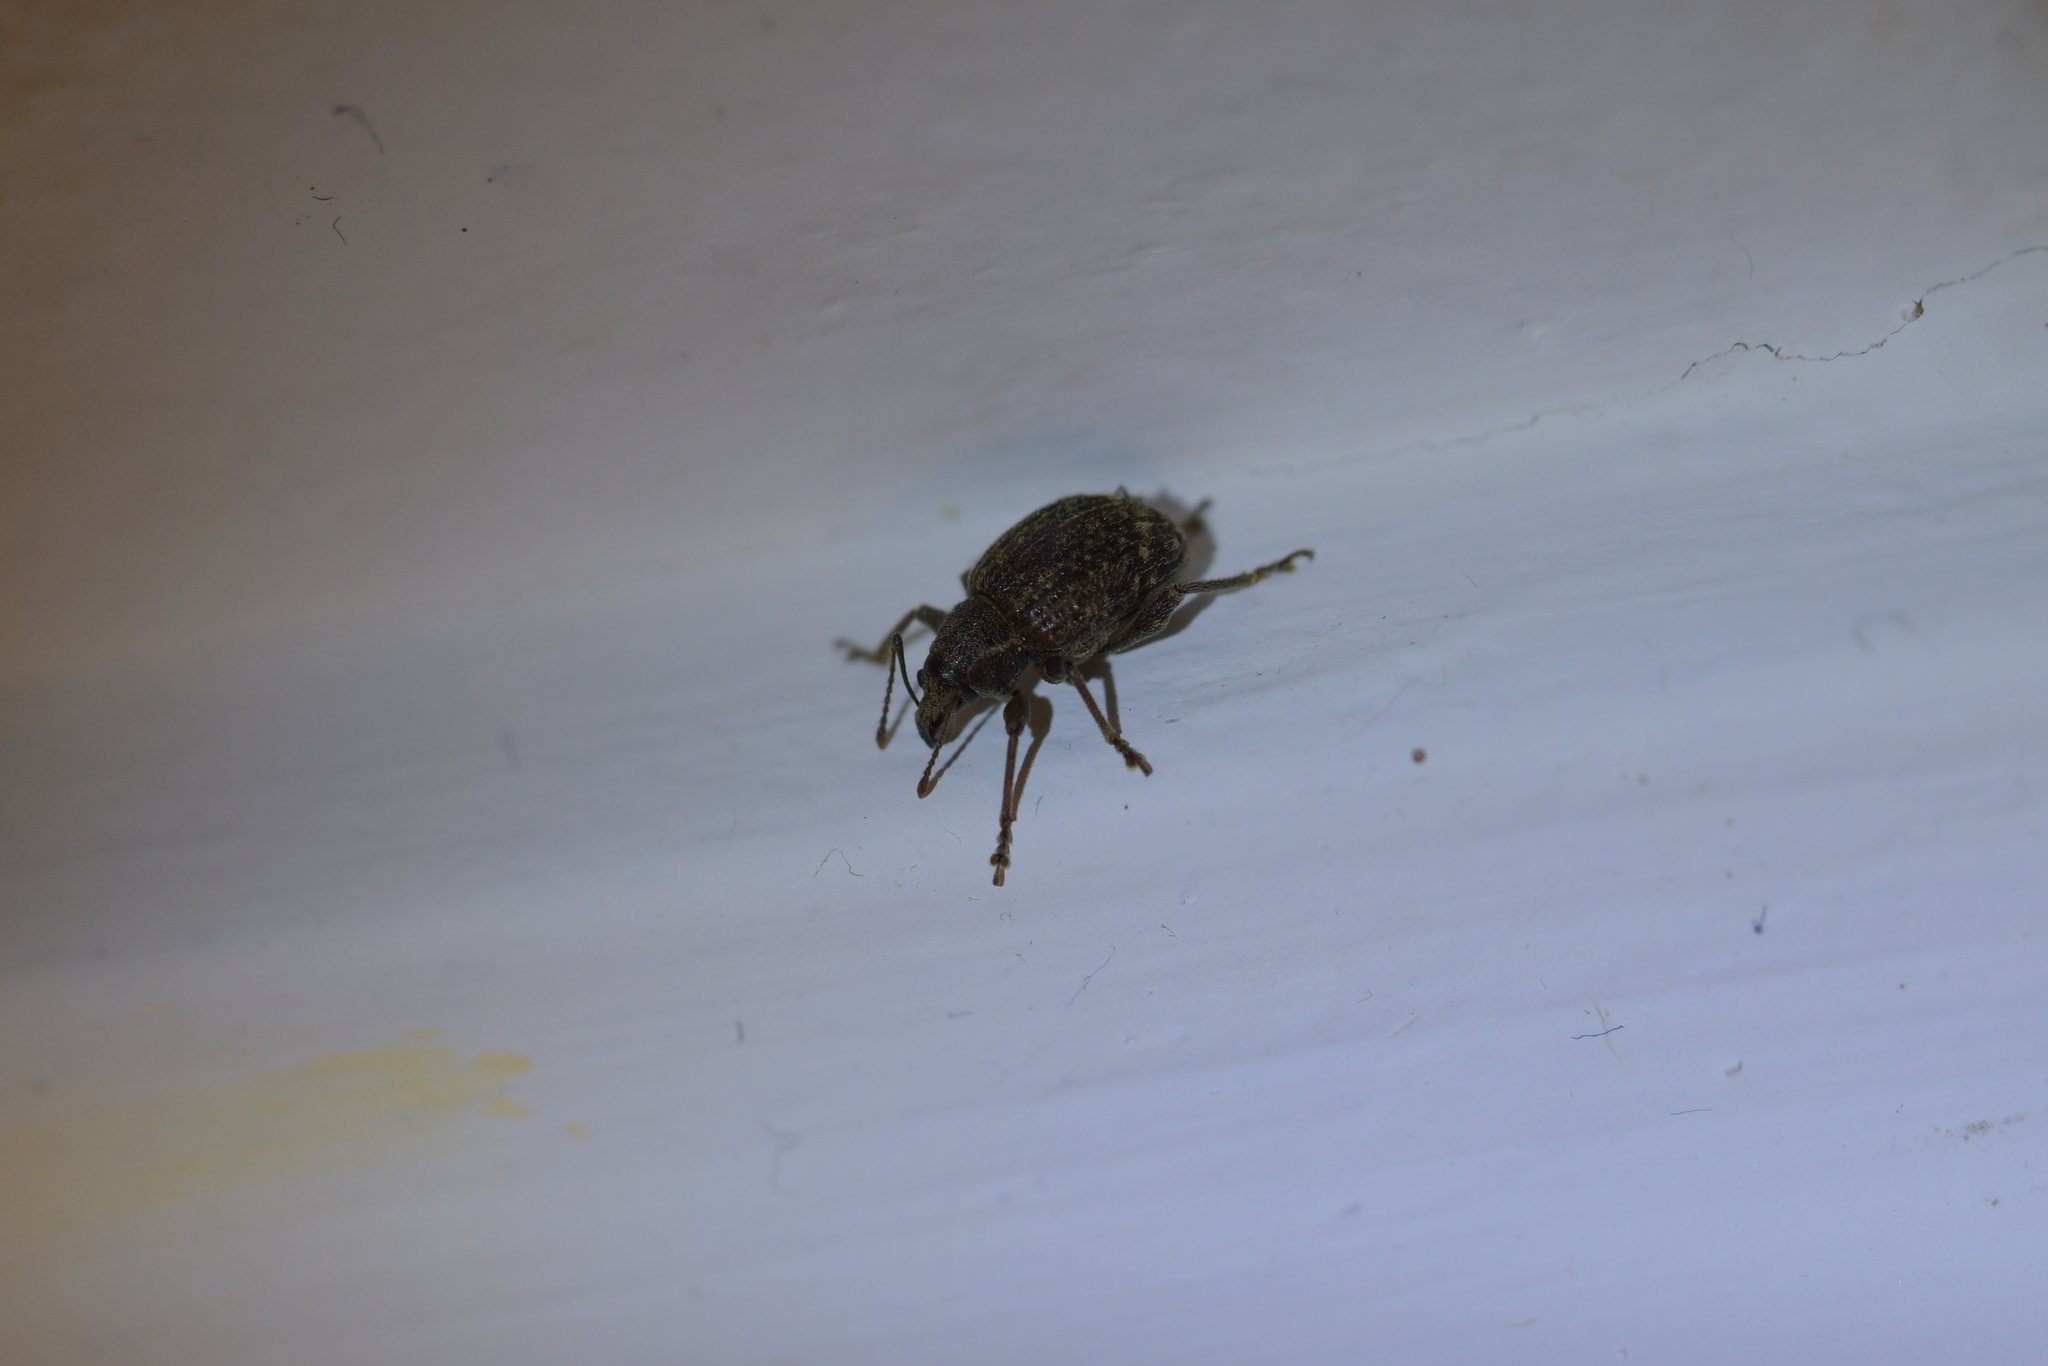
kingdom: Animalia
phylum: Arthropoda
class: Insecta
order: Coleoptera
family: Curculionidae
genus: Phlyctinus
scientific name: Phlyctinus callosus
